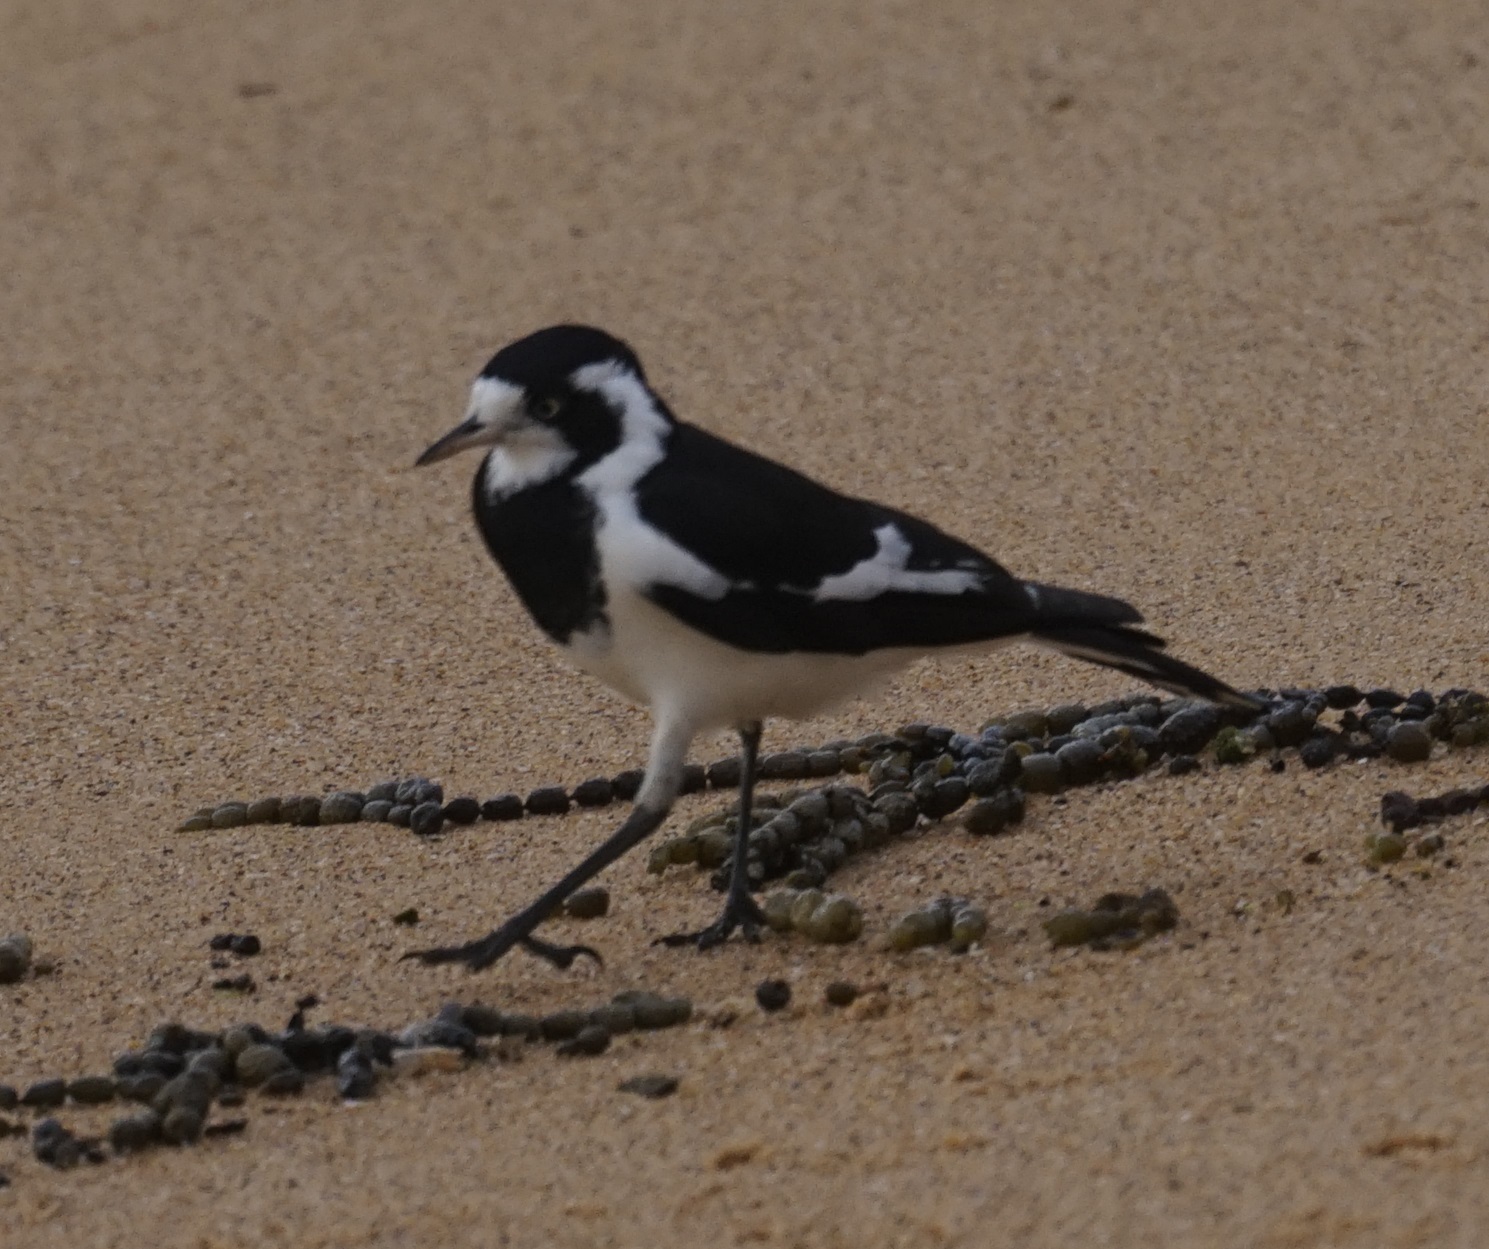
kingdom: Animalia
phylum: Chordata
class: Aves
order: Passeriformes
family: Monarchidae
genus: Grallina
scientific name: Grallina cyanoleuca
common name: Magpie-lark
